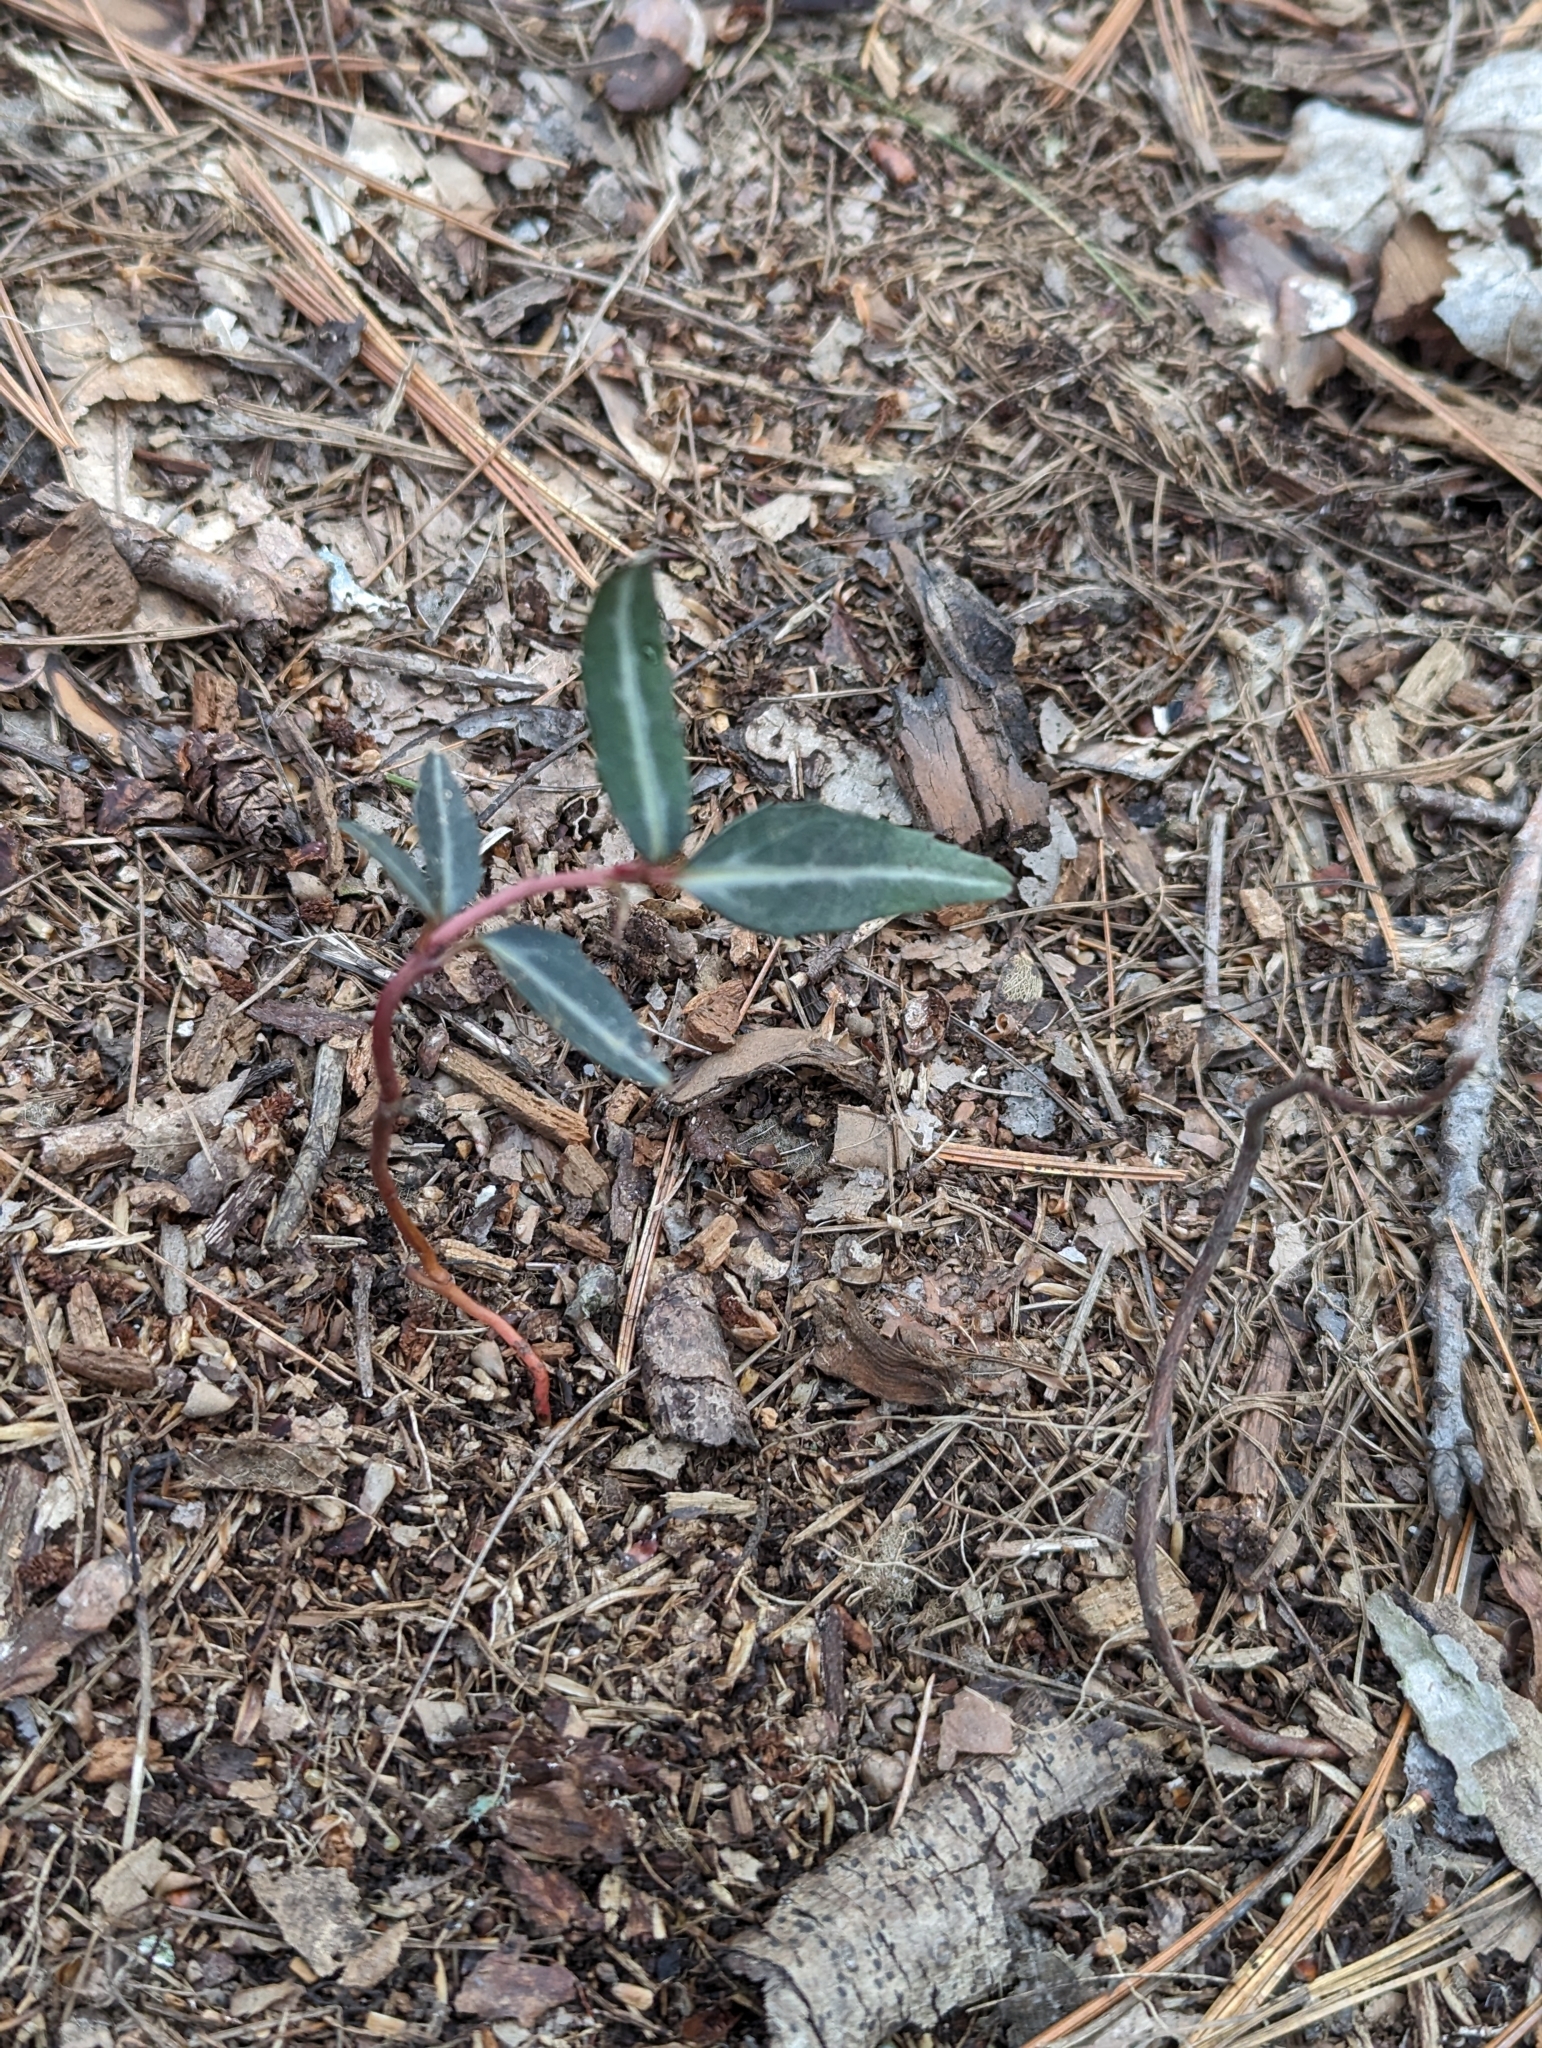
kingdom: Plantae
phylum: Tracheophyta
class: Magnoliopsida
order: Ericales
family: Ericaceae
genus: Chimaphila
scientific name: Chimaphila maculata
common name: Spotted pipsissewa
